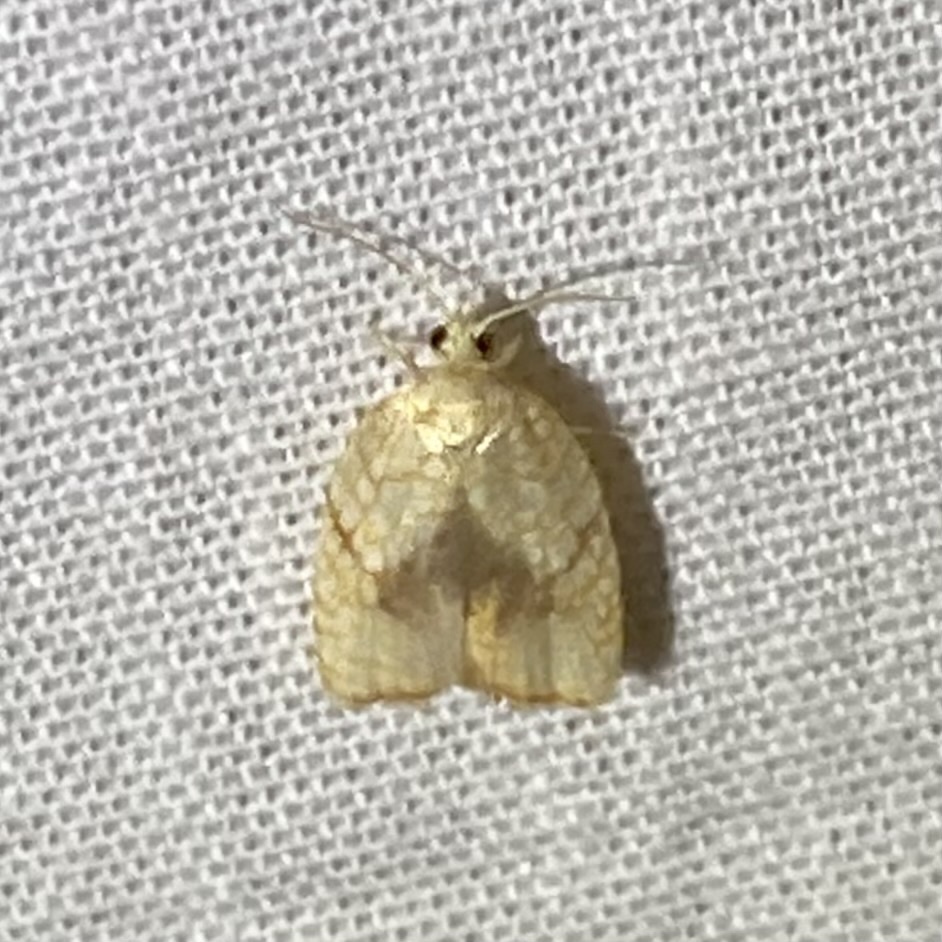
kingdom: Animalia
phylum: Arthropoda
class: Insecta
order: Lepidoptera
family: Tortricidae
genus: Acleris
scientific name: Acleris forsskaleana
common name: Maple button
